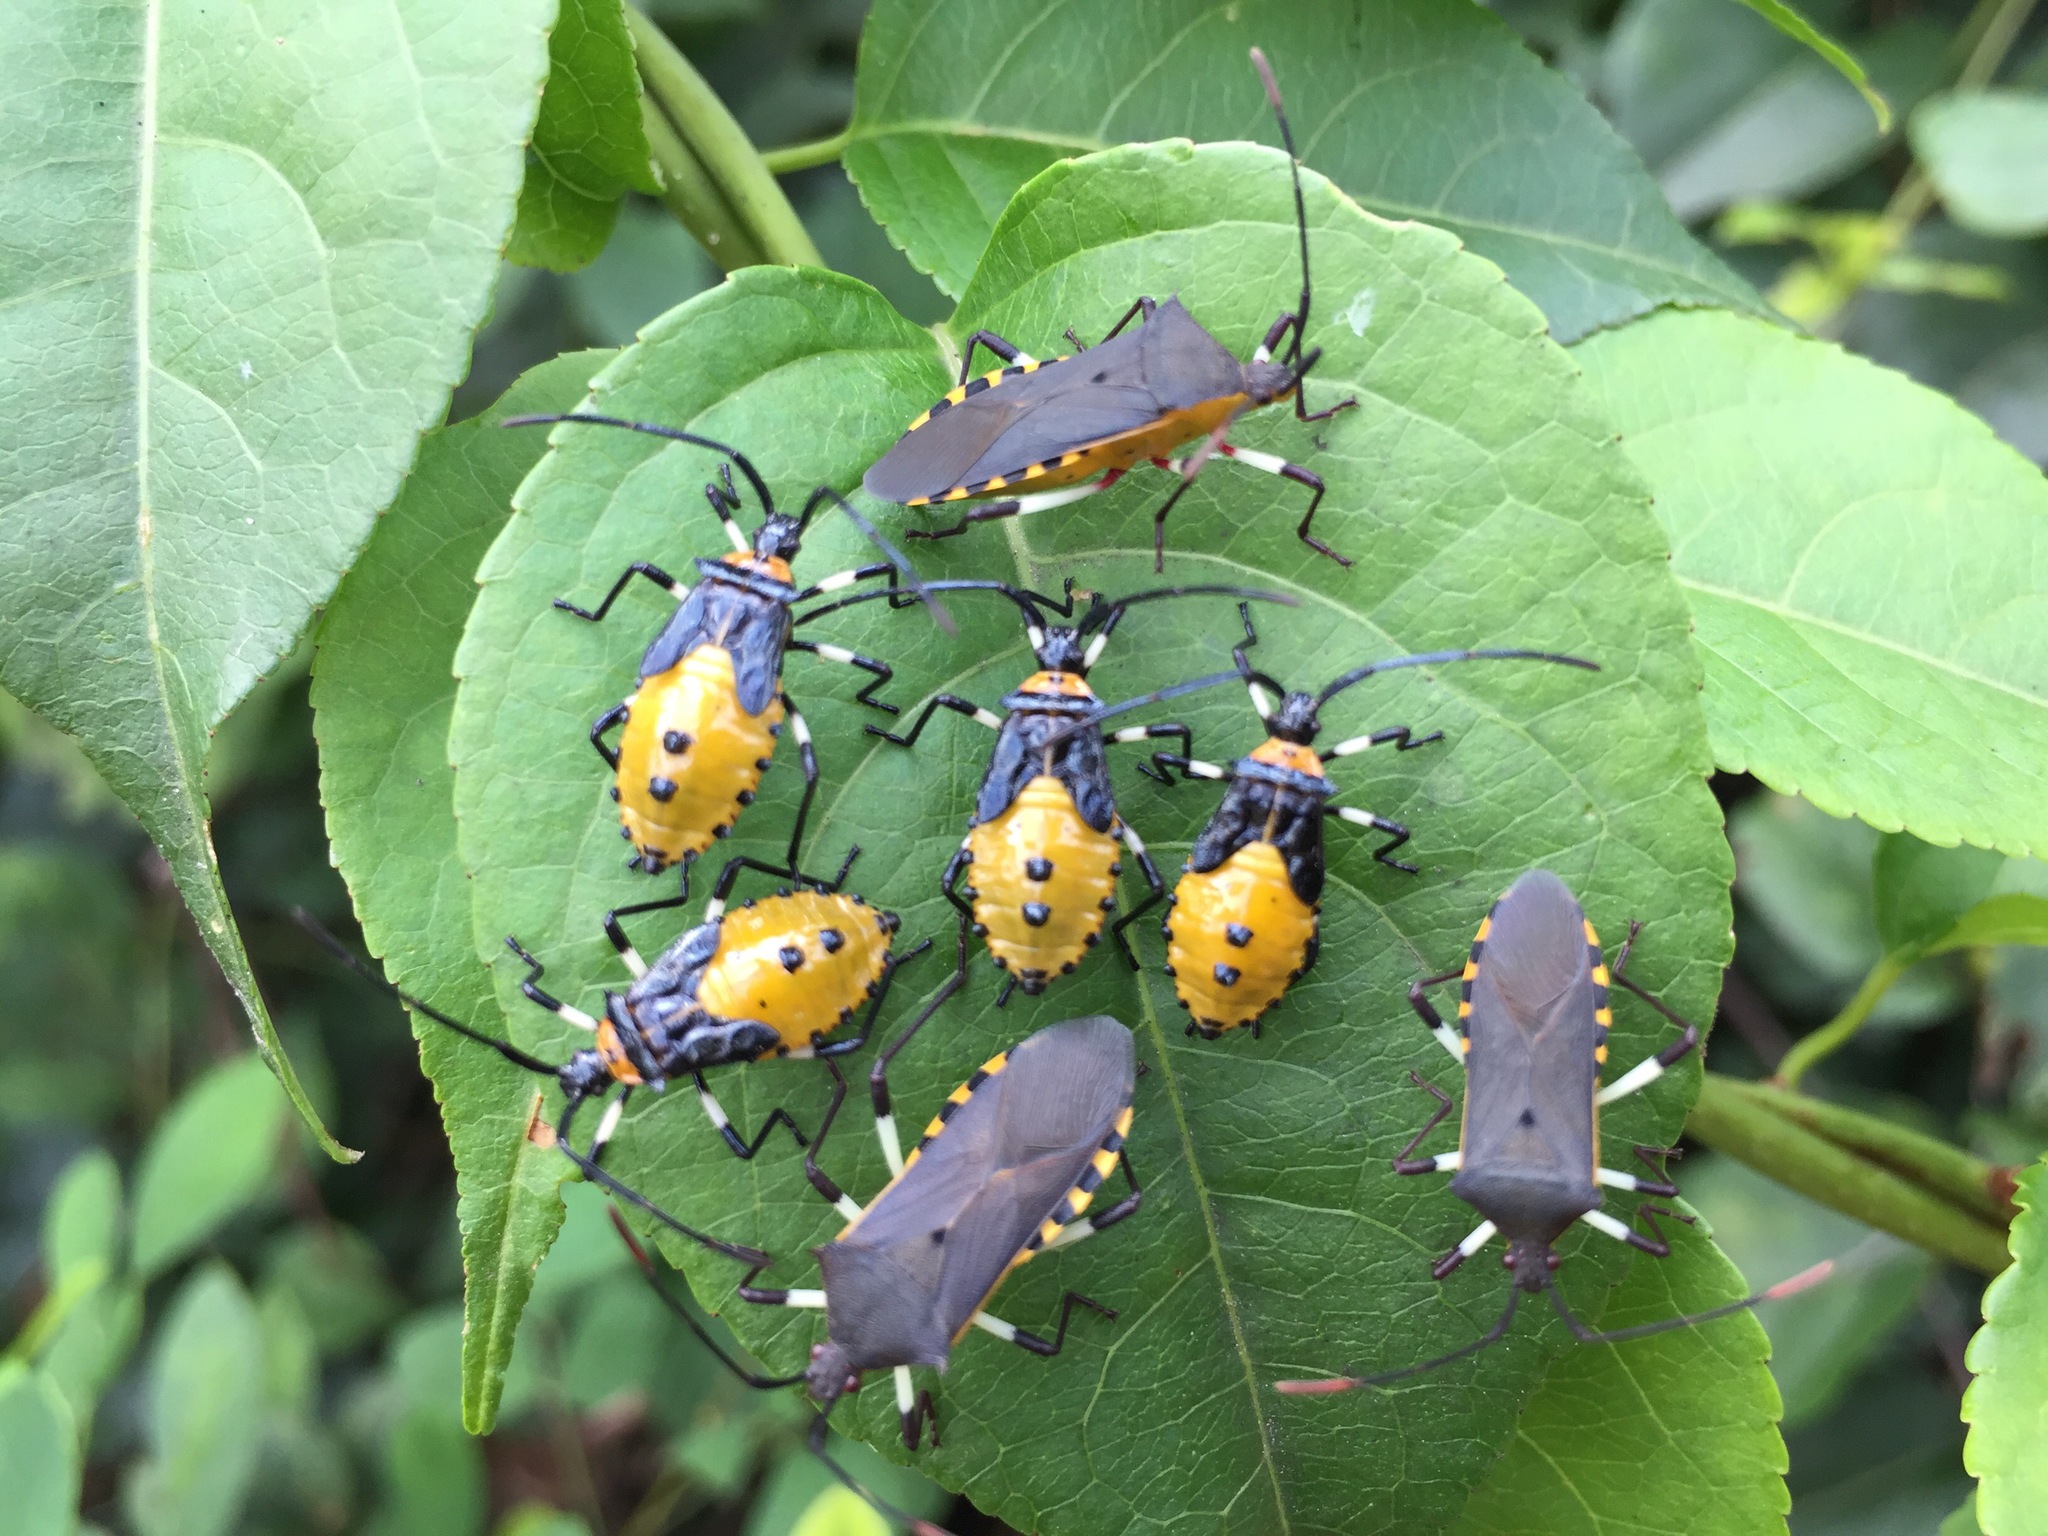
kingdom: Animalia
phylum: Arthropoda
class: Insecta
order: Hemiptera
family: Coreidae
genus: Plinachtus
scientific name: Plinachtus bicoloripes
